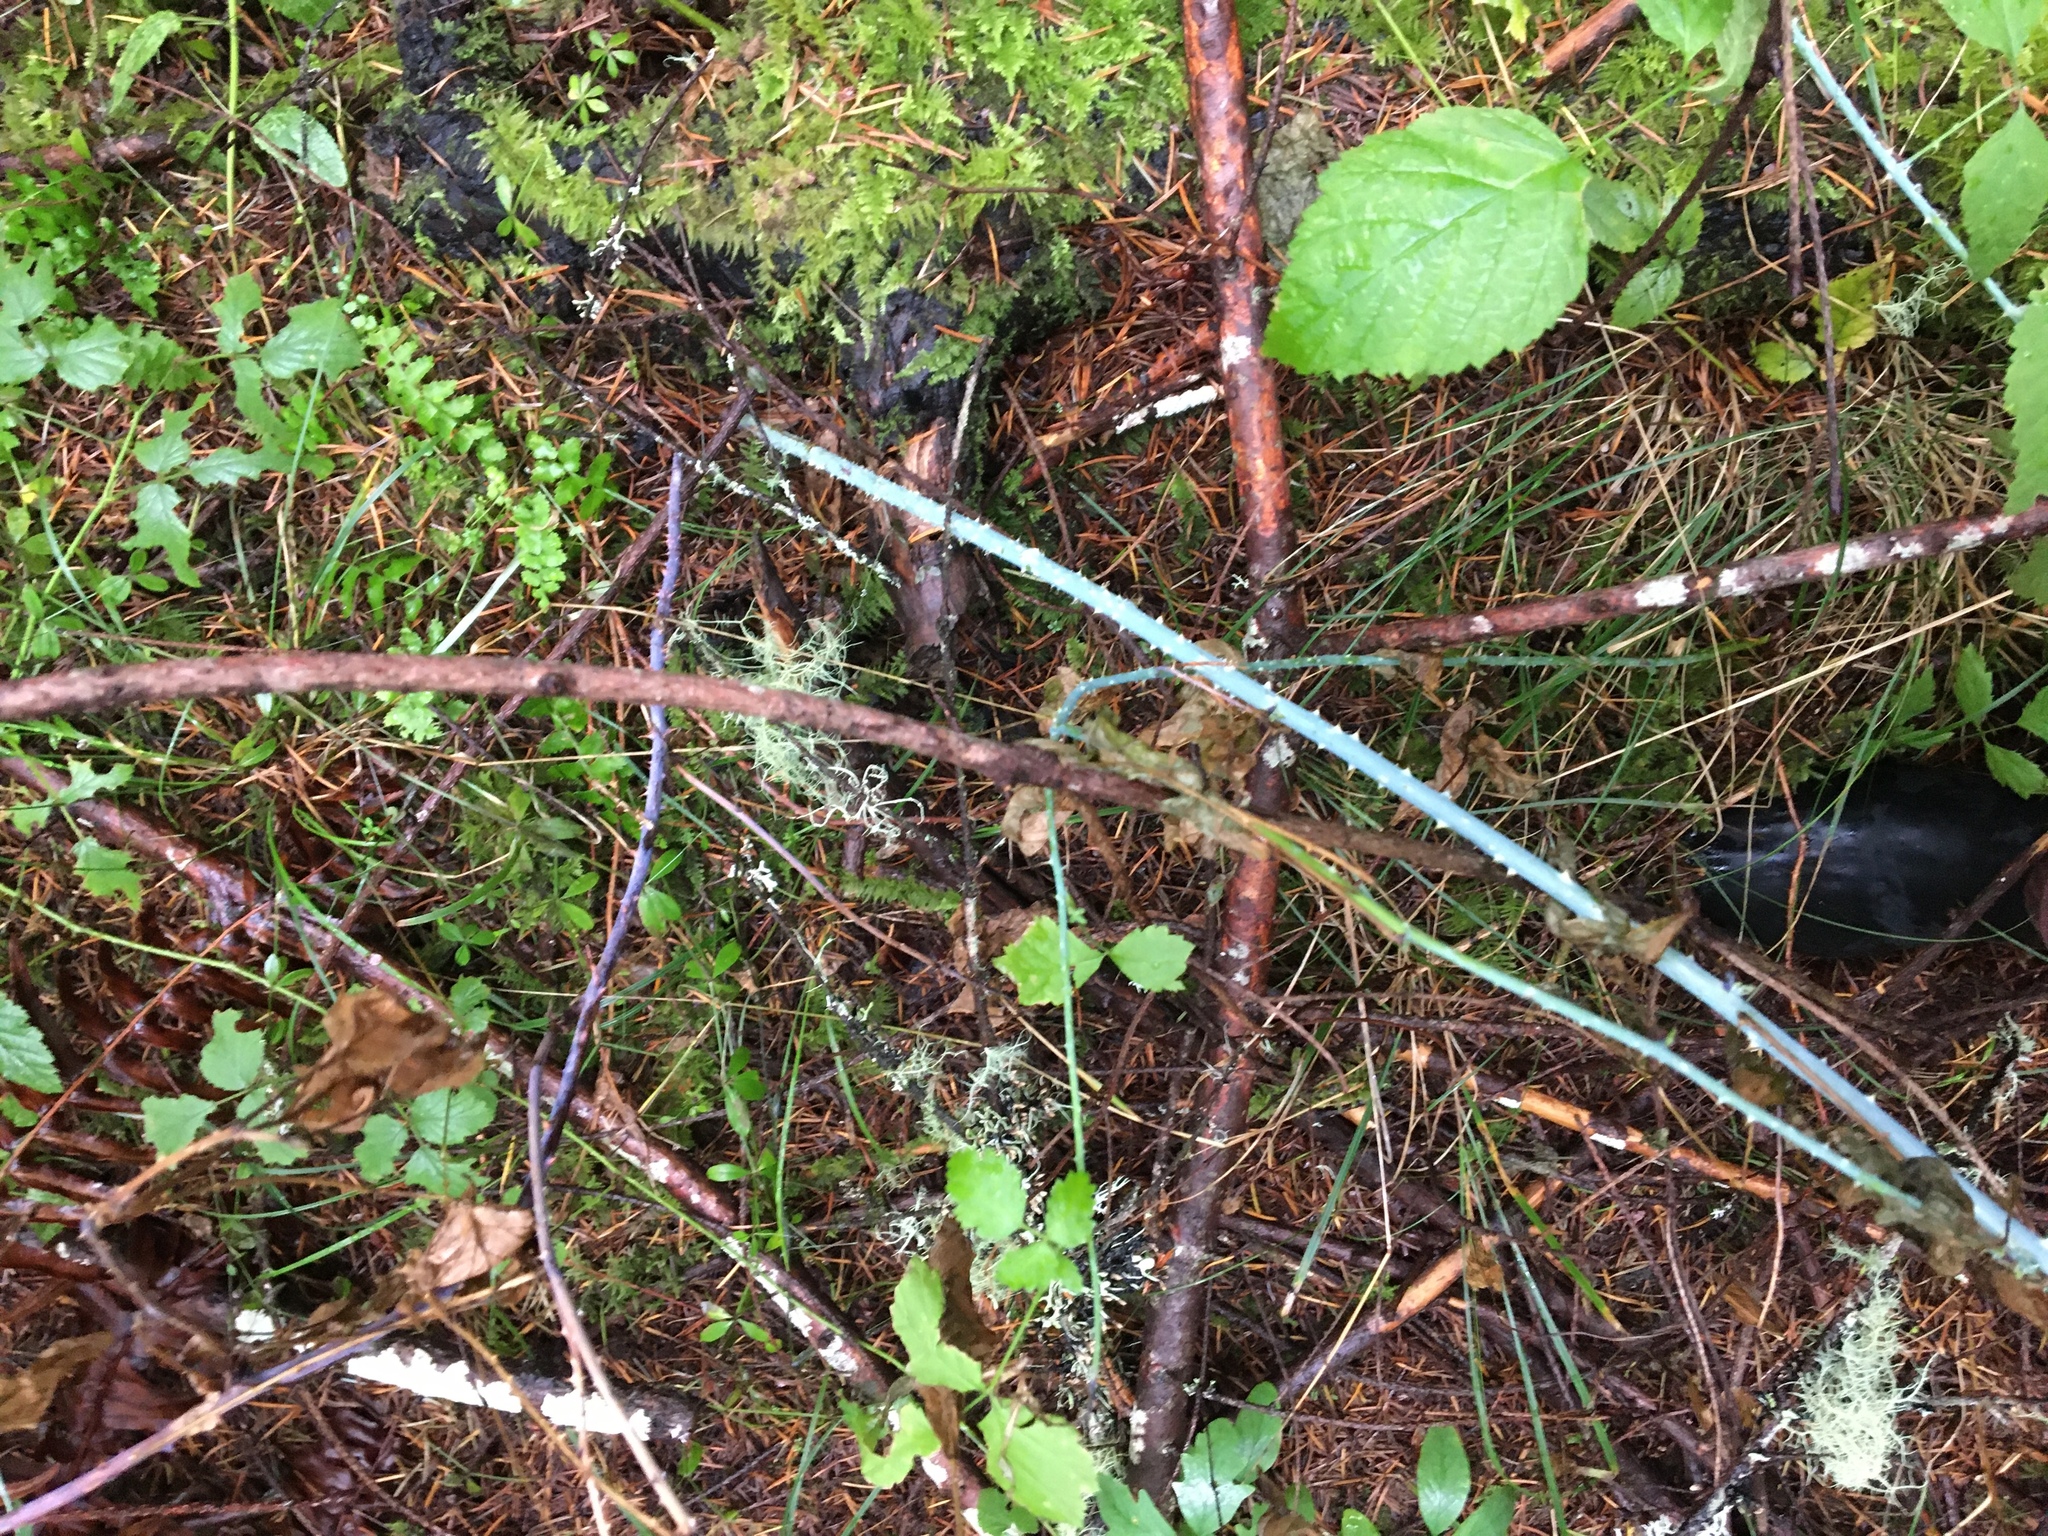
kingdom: Plantae
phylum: Tracheophyta
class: Magnoliopsida
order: Rosales
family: Rosaceae
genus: Rubus
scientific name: Rubus leucodermis
